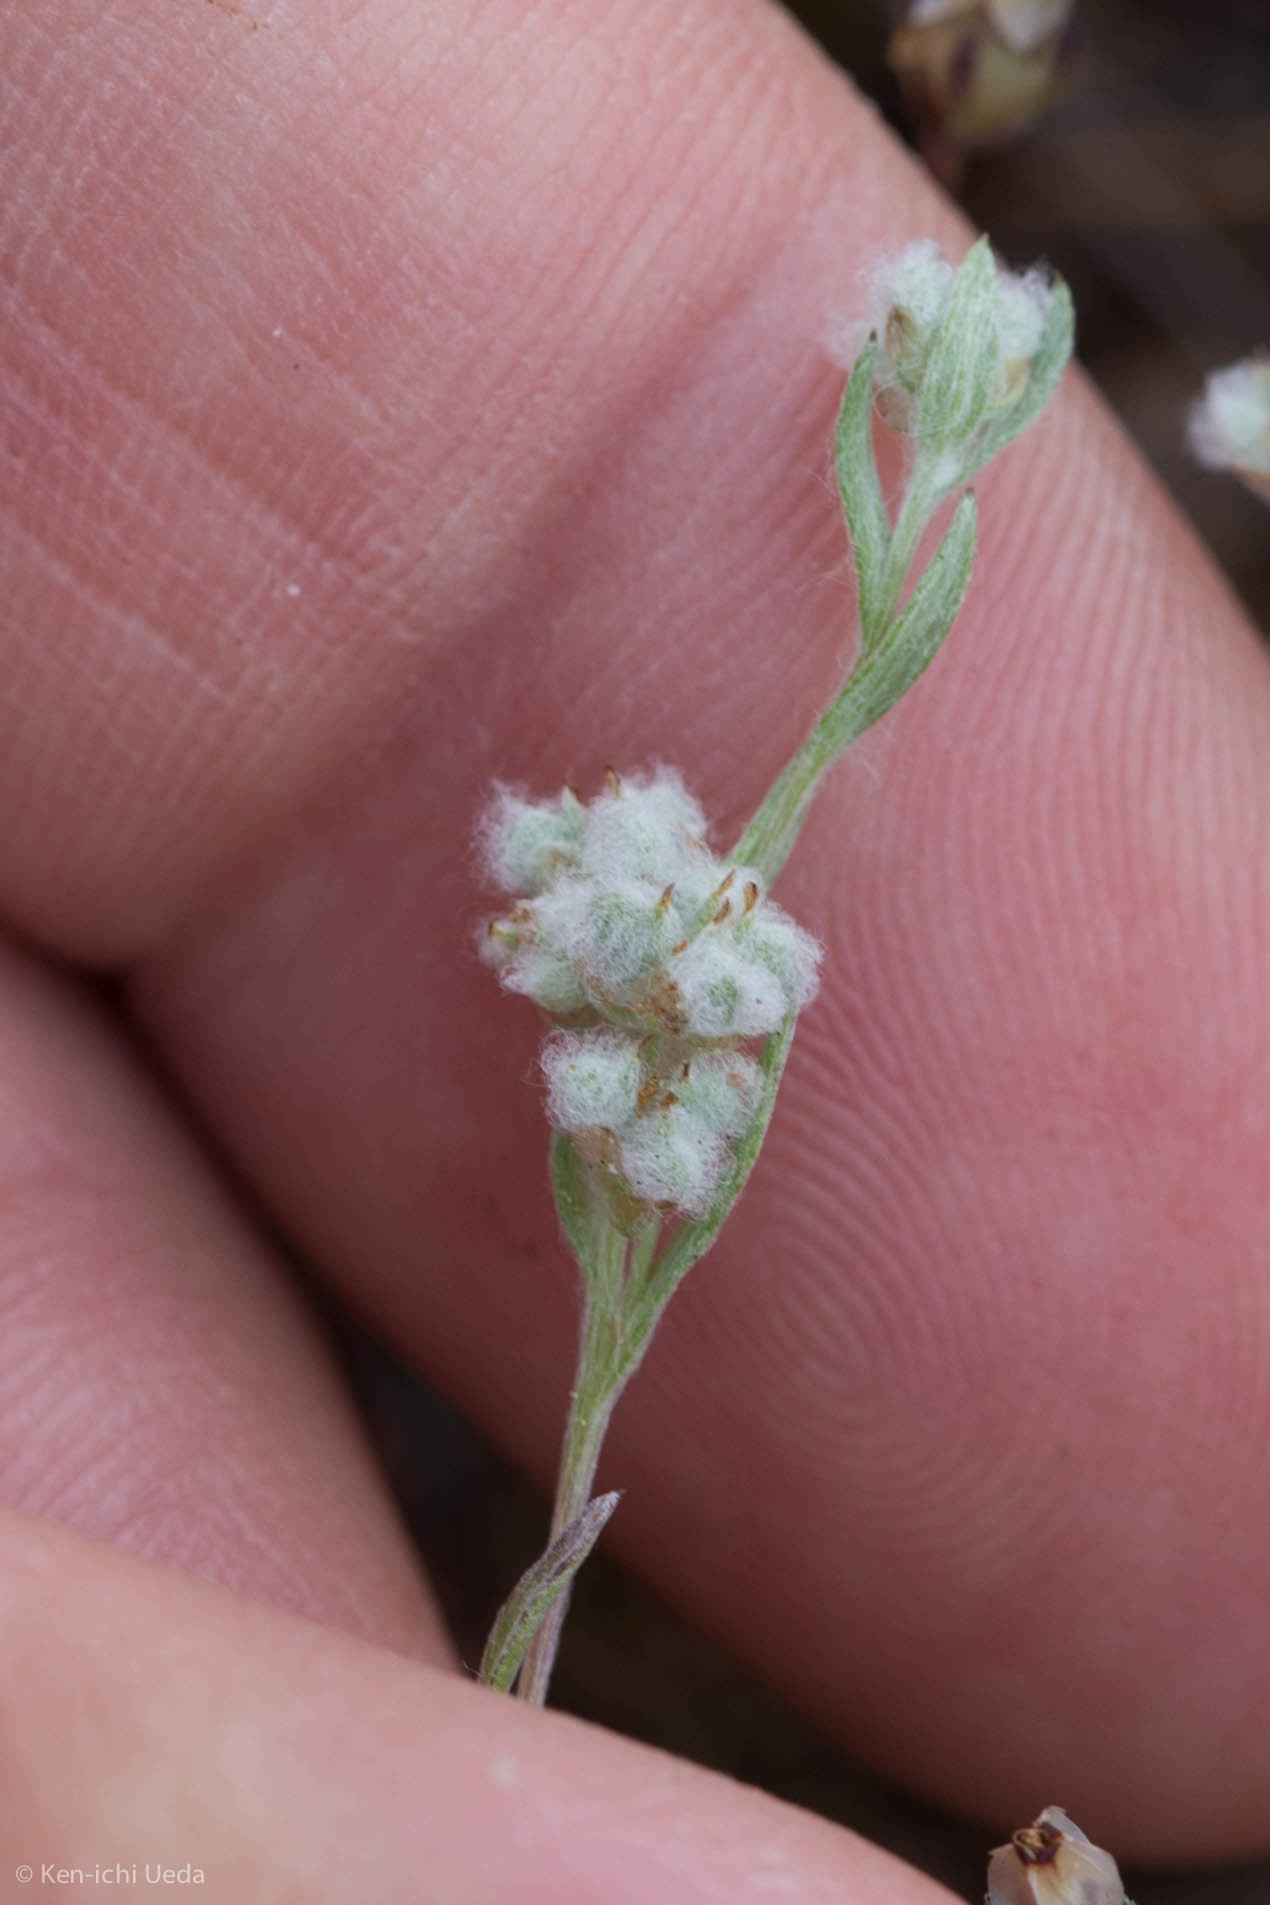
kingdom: Plantae
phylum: Tracheophyta
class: Magnoliopsida
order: Asterales
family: Asteraceae
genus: Bombycilaena
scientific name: Bombycilaena californica
